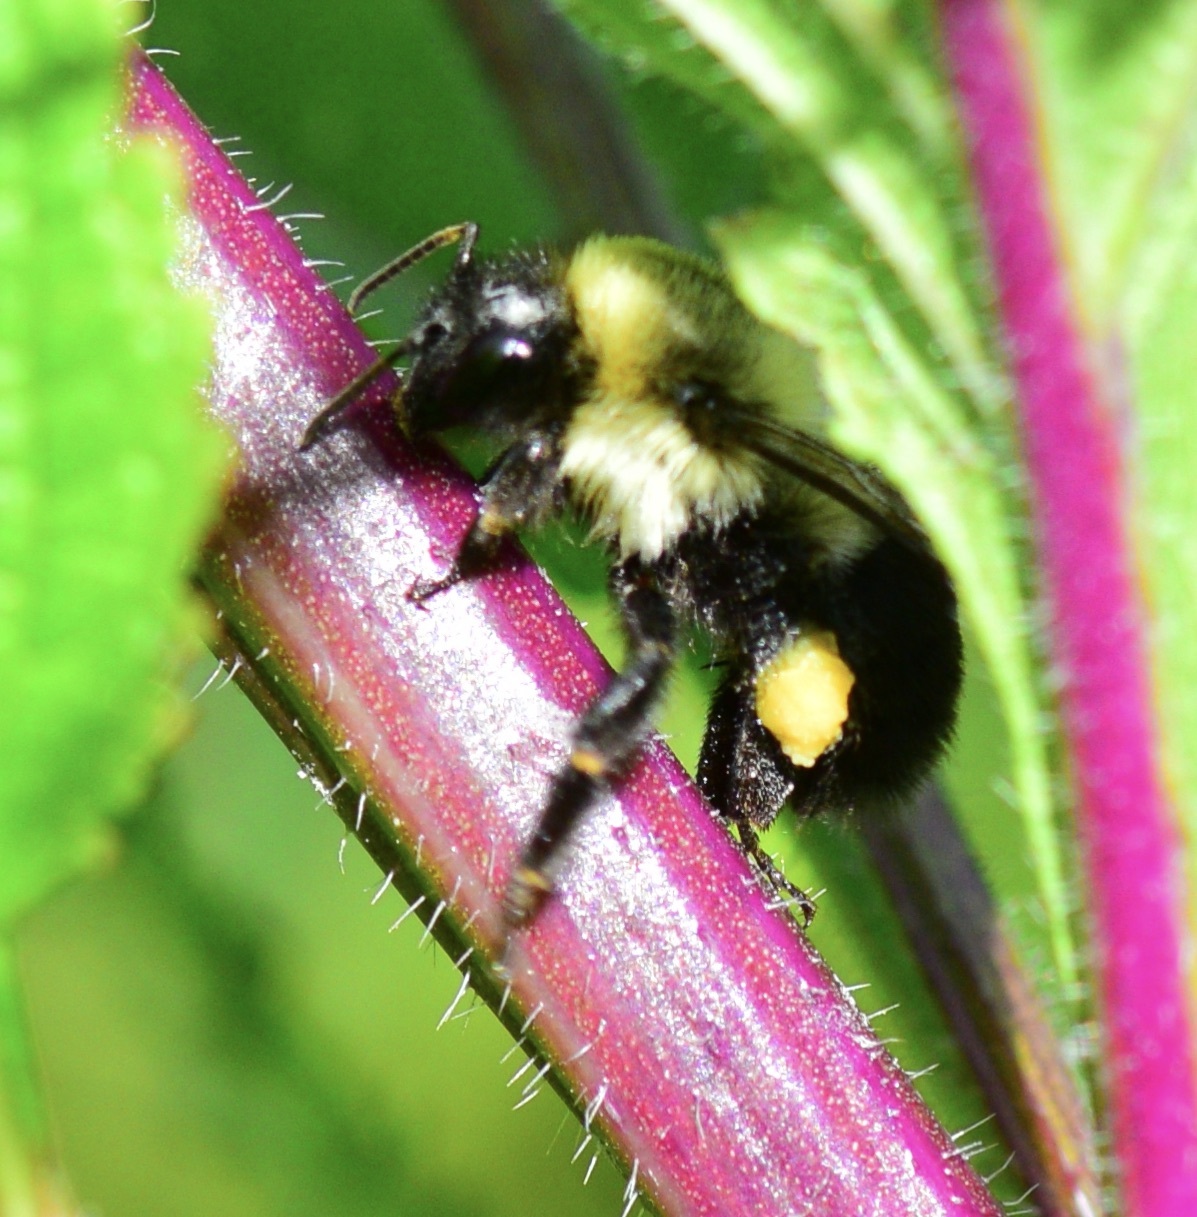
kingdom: Animalia
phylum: Arthropoda
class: Insecta
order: Hymenoptera
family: Apidae
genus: Bombus
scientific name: Bombus impatiens
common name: Common eastern bumble bee
